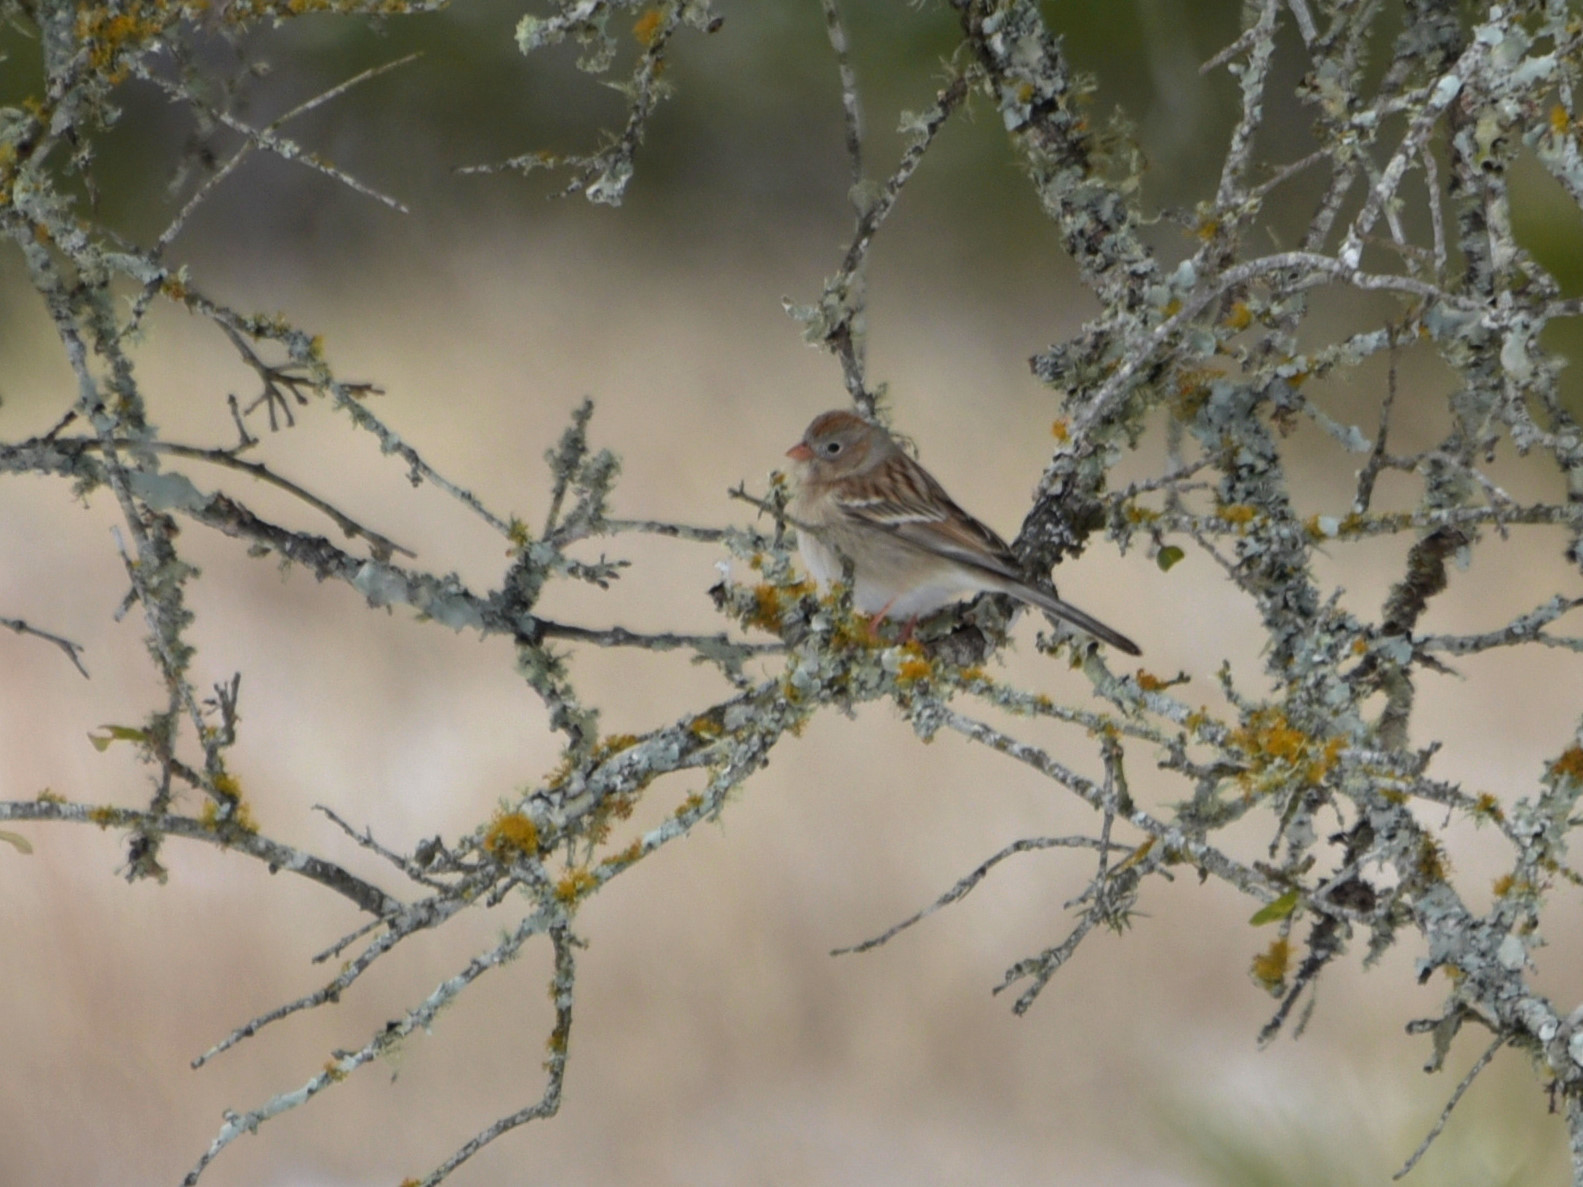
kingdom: Animalia
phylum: Chordata
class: Aves
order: Passeriformes
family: Passerellidae
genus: Spizella
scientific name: Spizella pusilla
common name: Field sparrow
